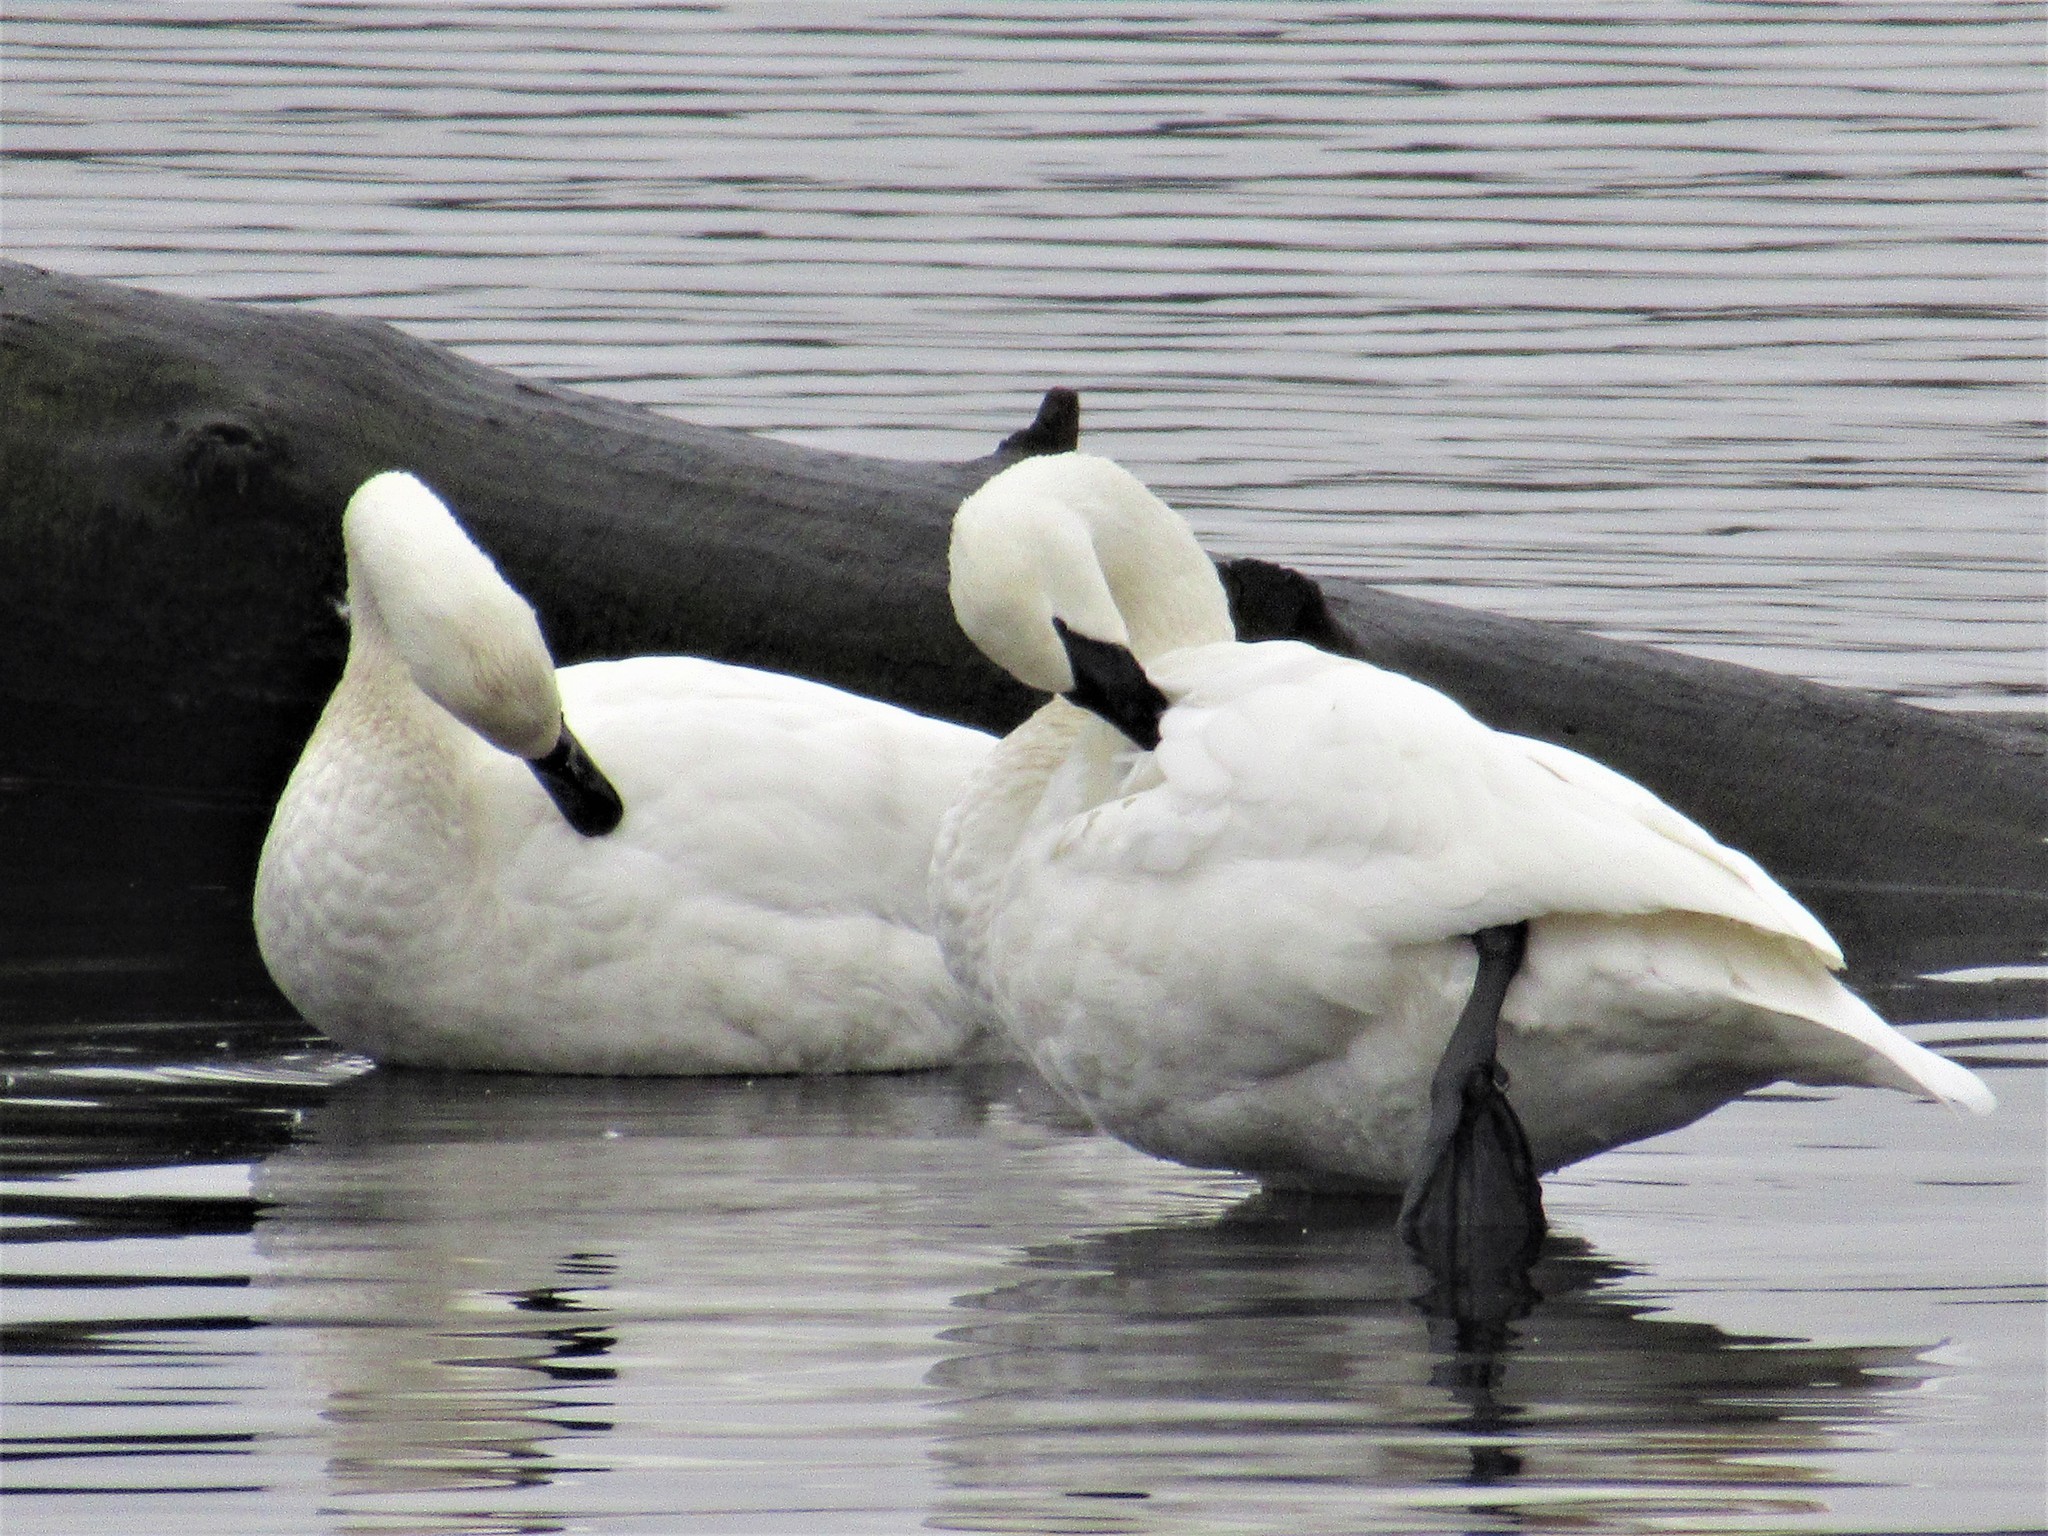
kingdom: Animalia
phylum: Chordata
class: Aves
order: Anseriformes
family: Anatidae
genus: Cygnus
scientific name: Cygnus buccinator
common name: Trumpeter swan
